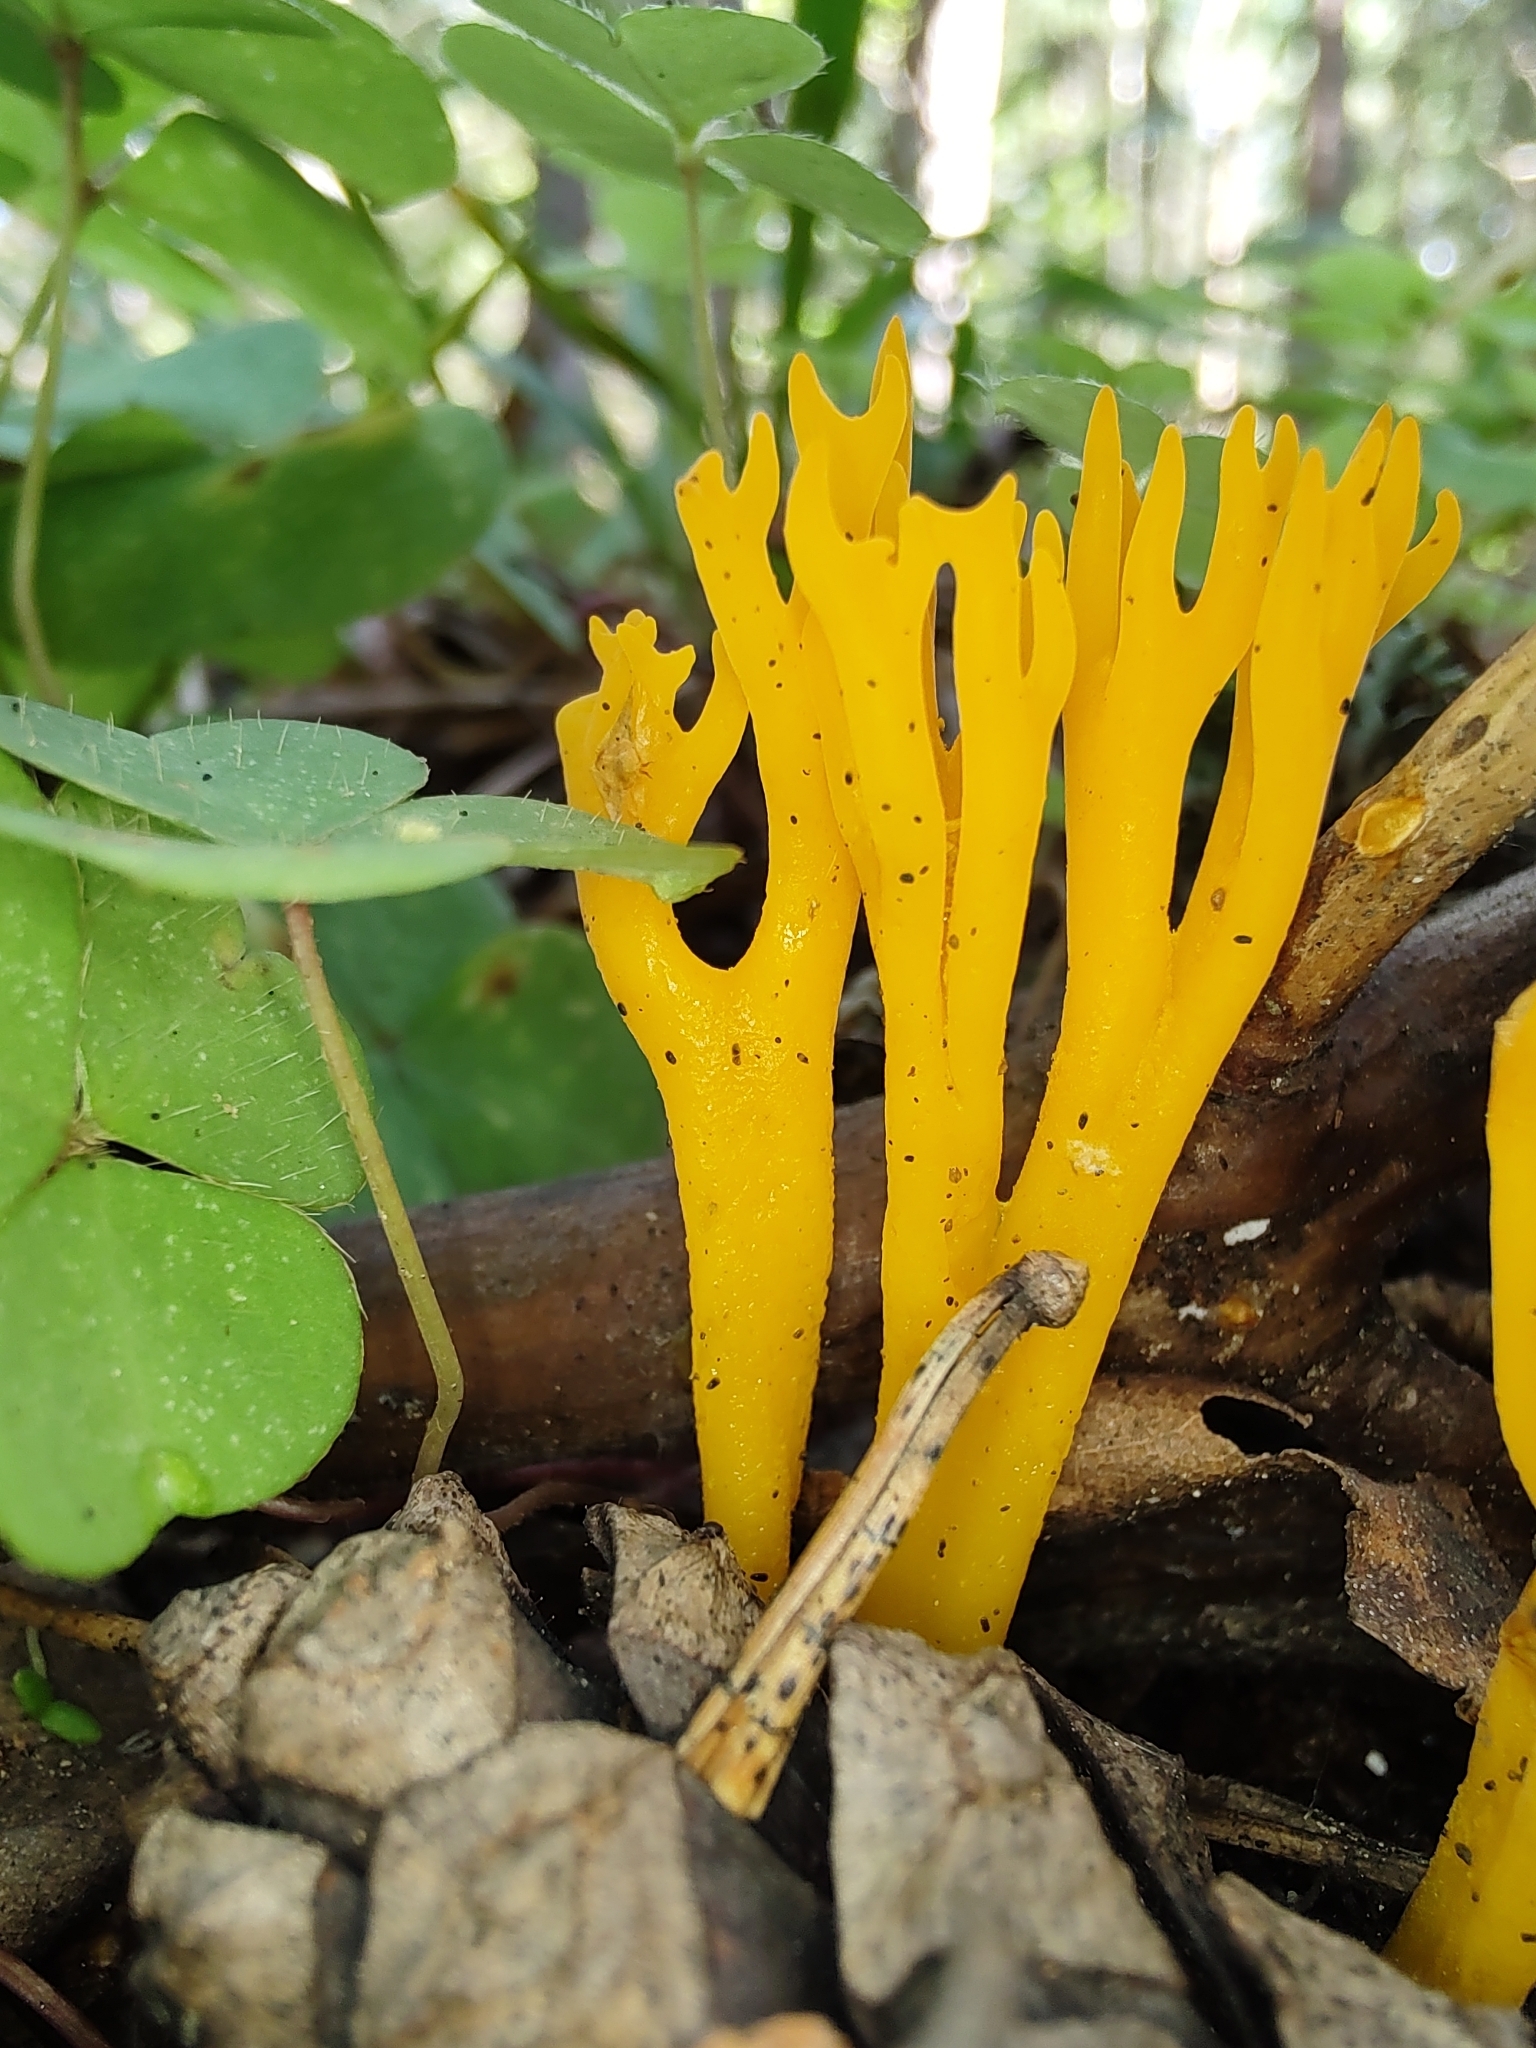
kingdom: Fungi
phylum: Basidiomycota
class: Dacrymycetes
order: Dacrymycetales
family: Dacrymycetaceae
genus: Calocera
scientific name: Calocera viscosa
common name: Yellow stagshorn
